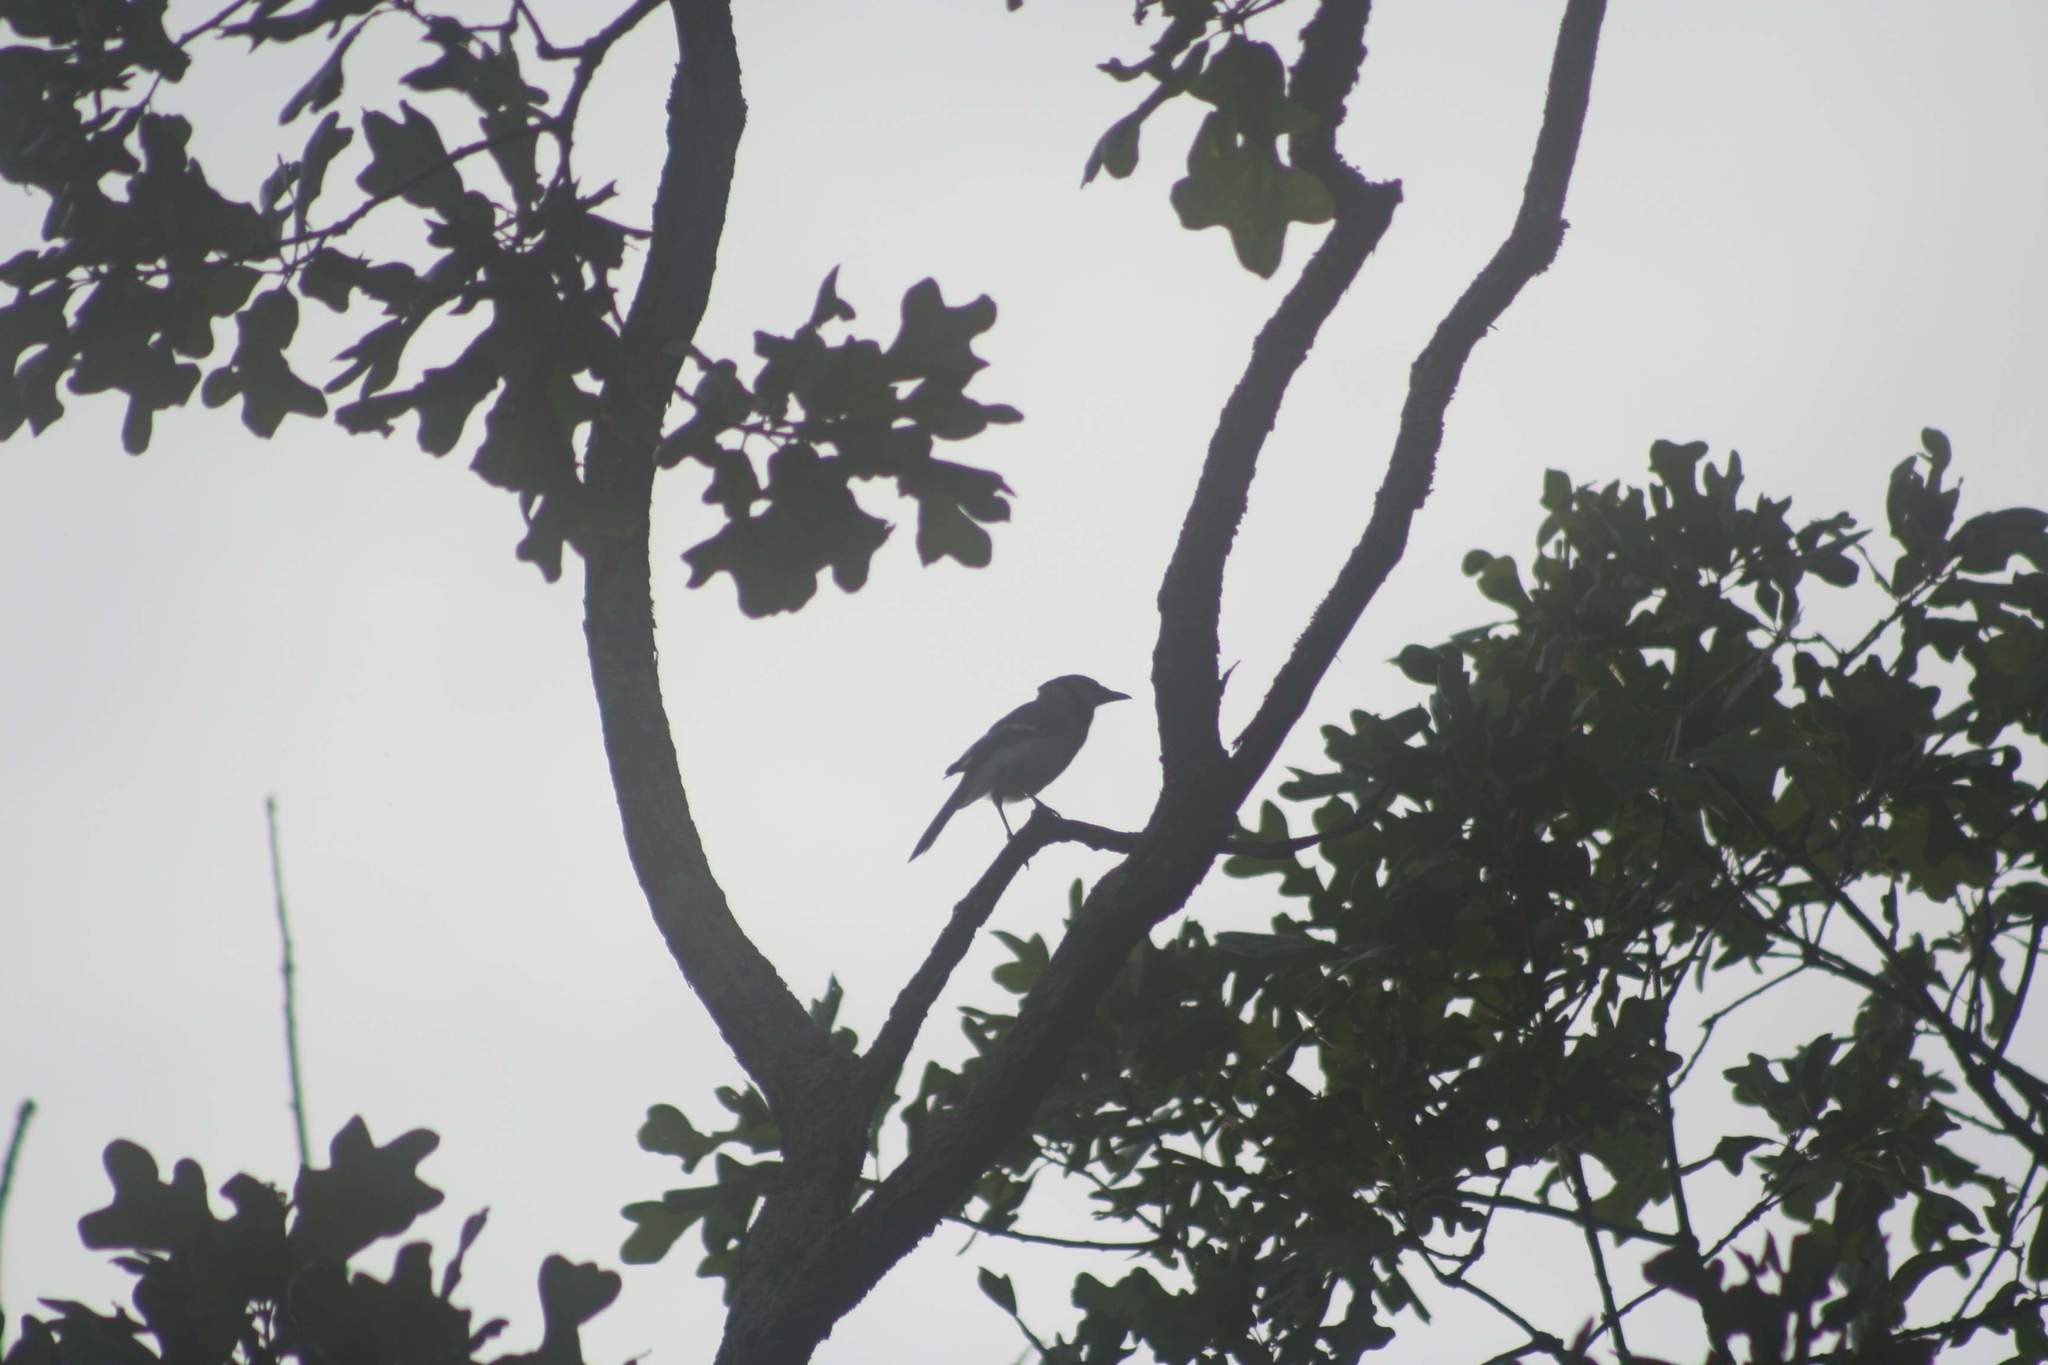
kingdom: Animalia
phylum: Chordata
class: Aves
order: Passeriformes
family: Corvidae
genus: Cyanocitta
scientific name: Cyanocitta cristata
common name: Blue jay
